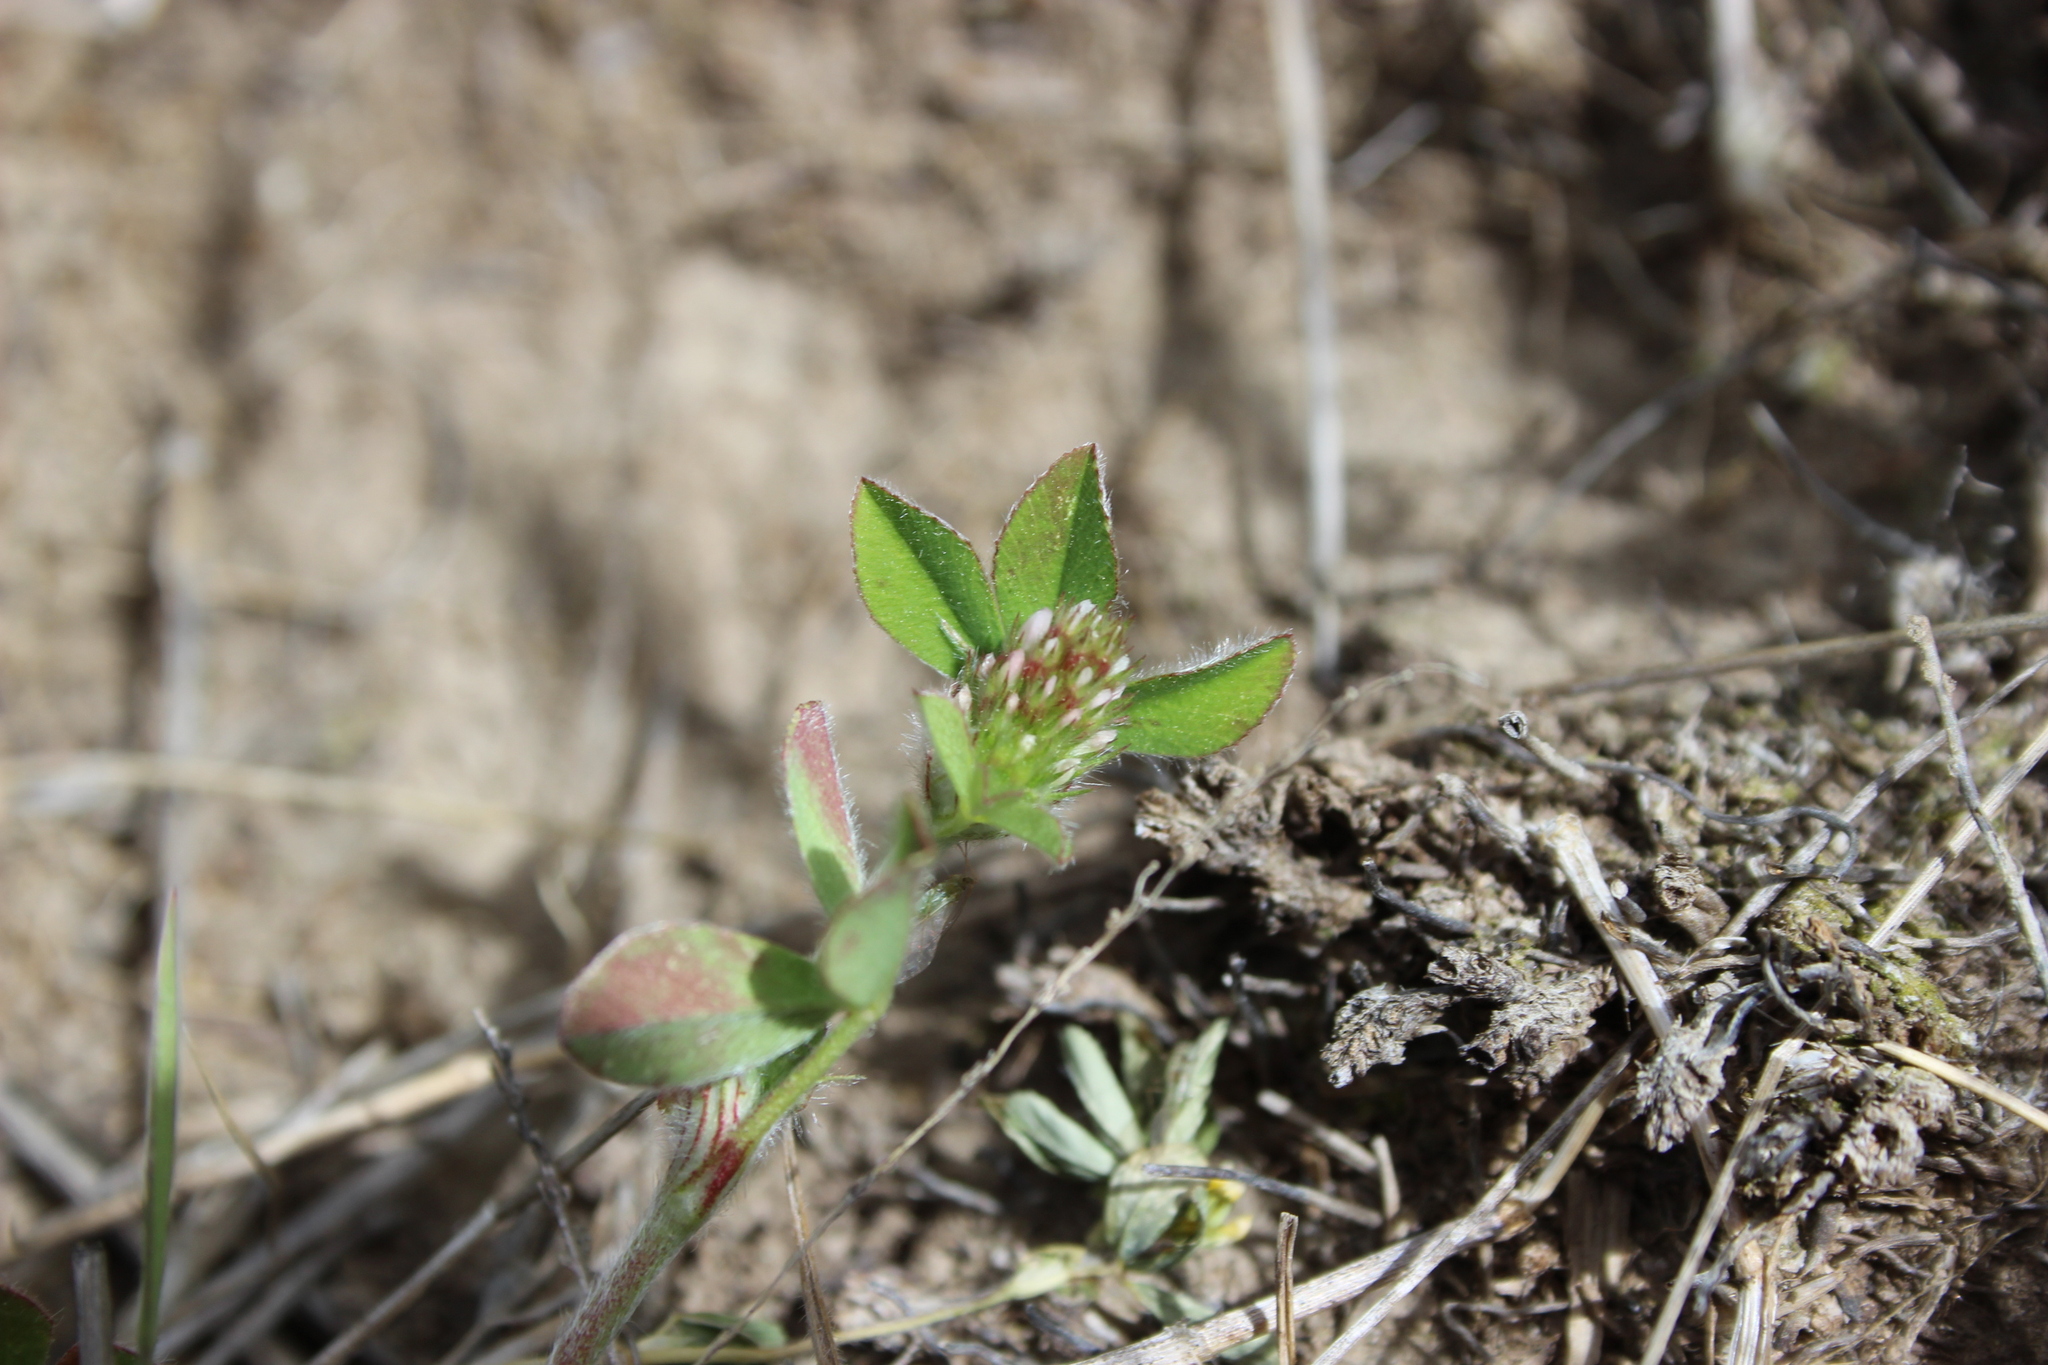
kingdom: Plantae
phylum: Tracheophyta
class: Magnoliopsida
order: Fabales
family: Fabaceae
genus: Trifolium
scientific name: Trifolium striatum
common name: Knotted clover
